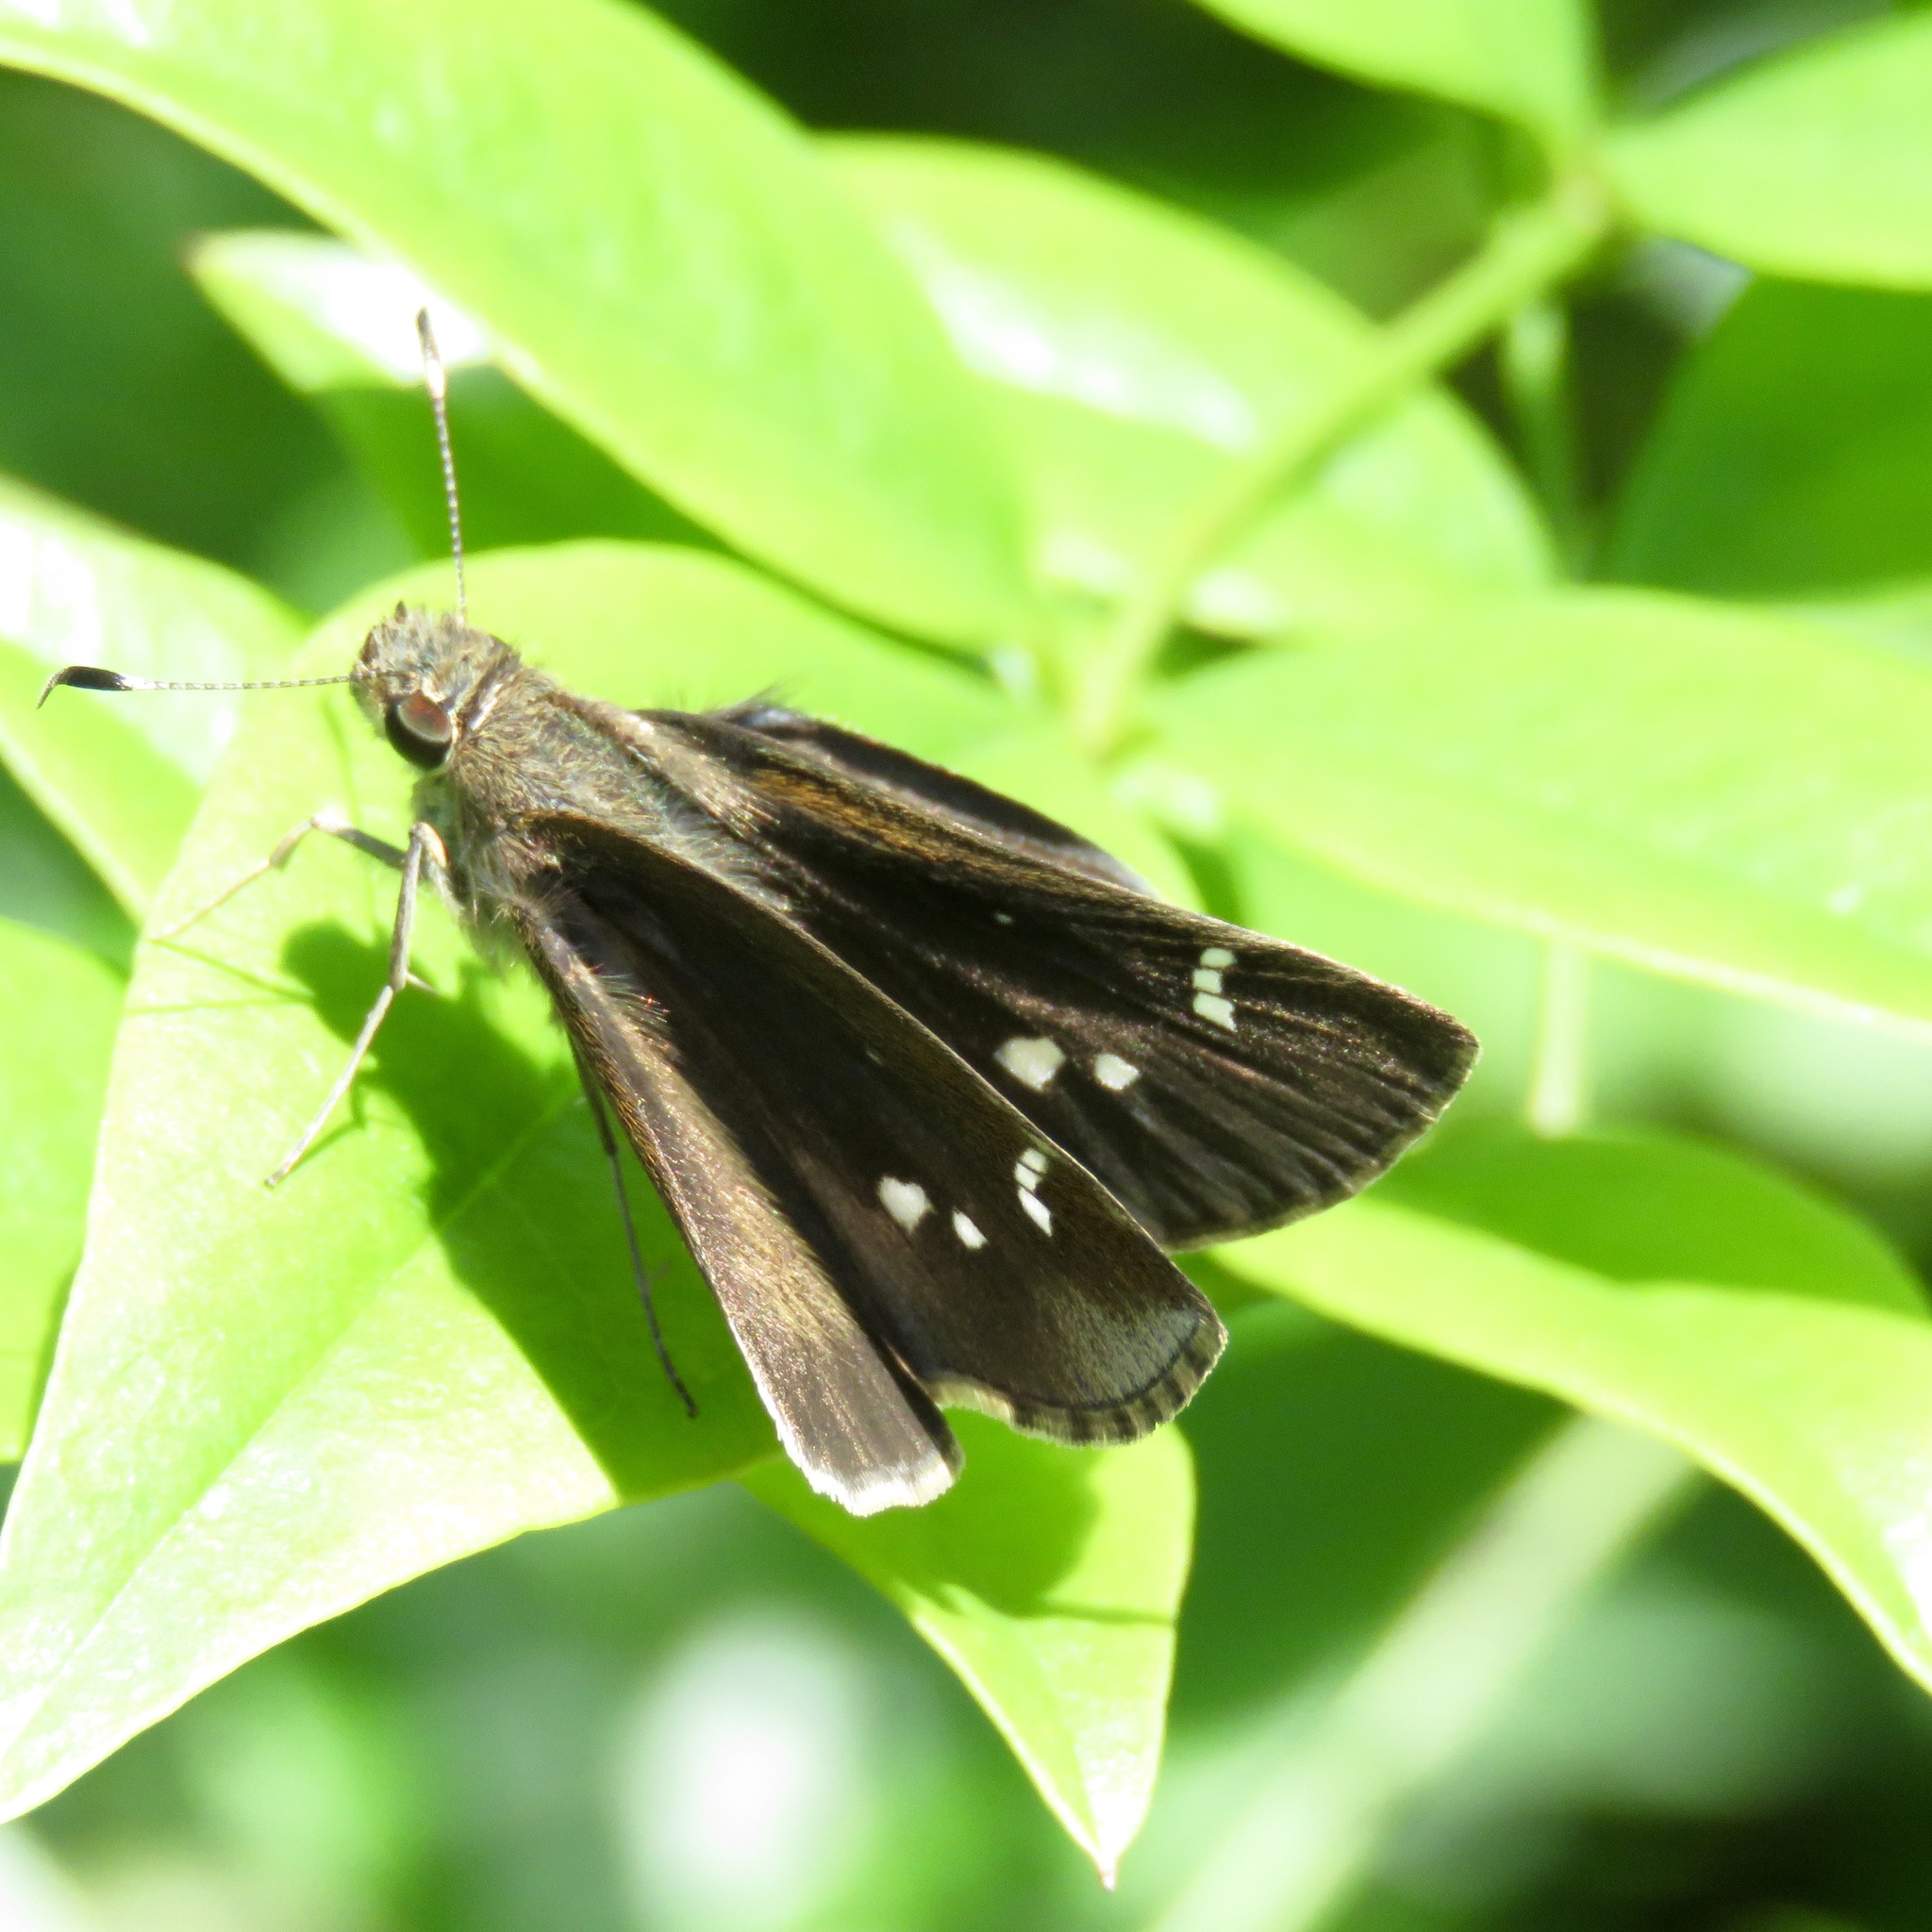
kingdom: Animalia
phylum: Arthropoda
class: Insecta
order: Lepidoptera
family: Hesperiidae
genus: Lerema
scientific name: Lerema accius
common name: Clouded skipper
